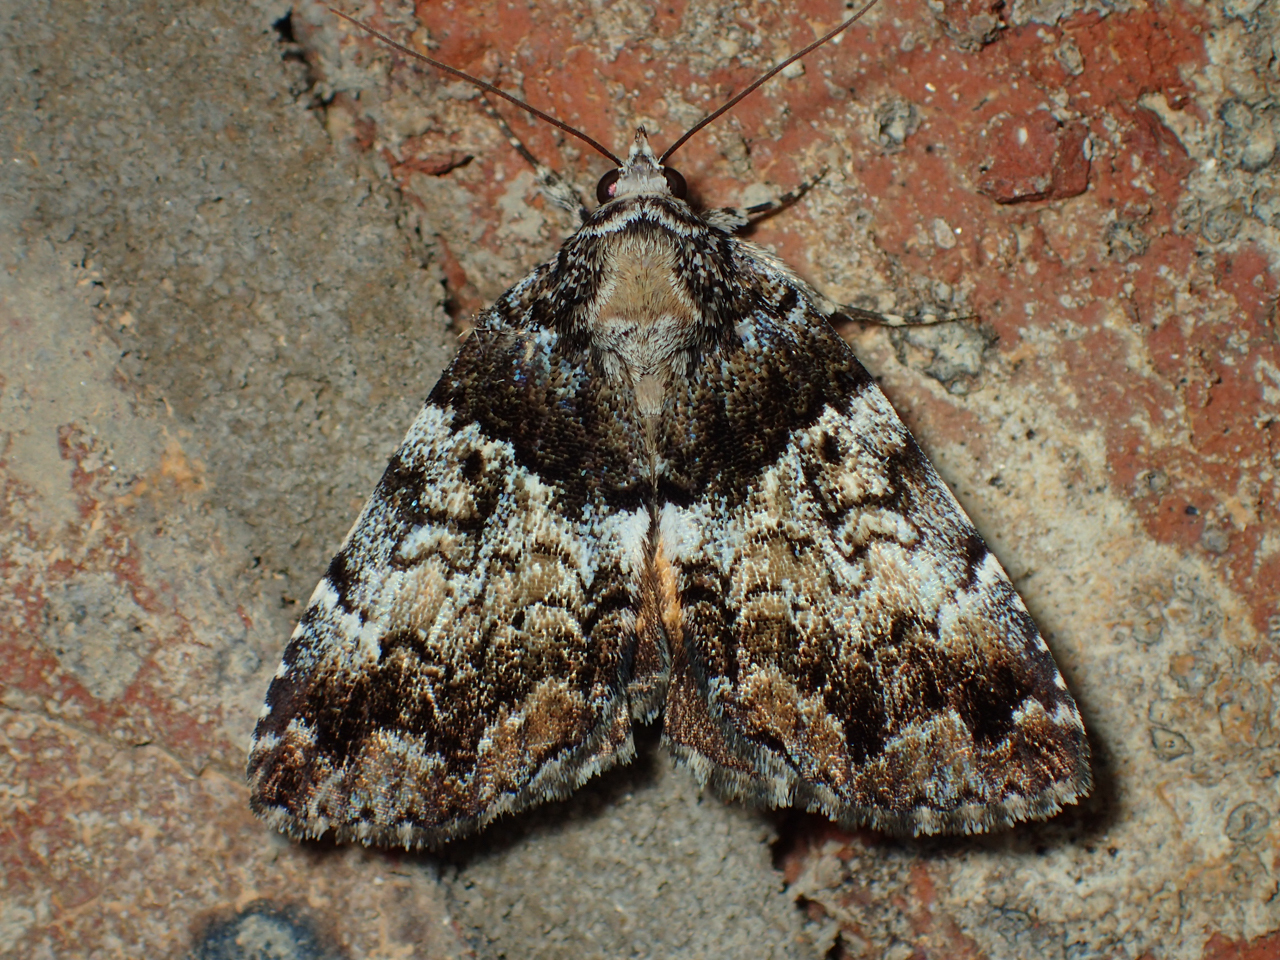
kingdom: Animalia
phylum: Arthropoda
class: Insecta
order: Lepidoptera
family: Erebidae
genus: Allotria
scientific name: Allotria elonympha
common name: False underwing
